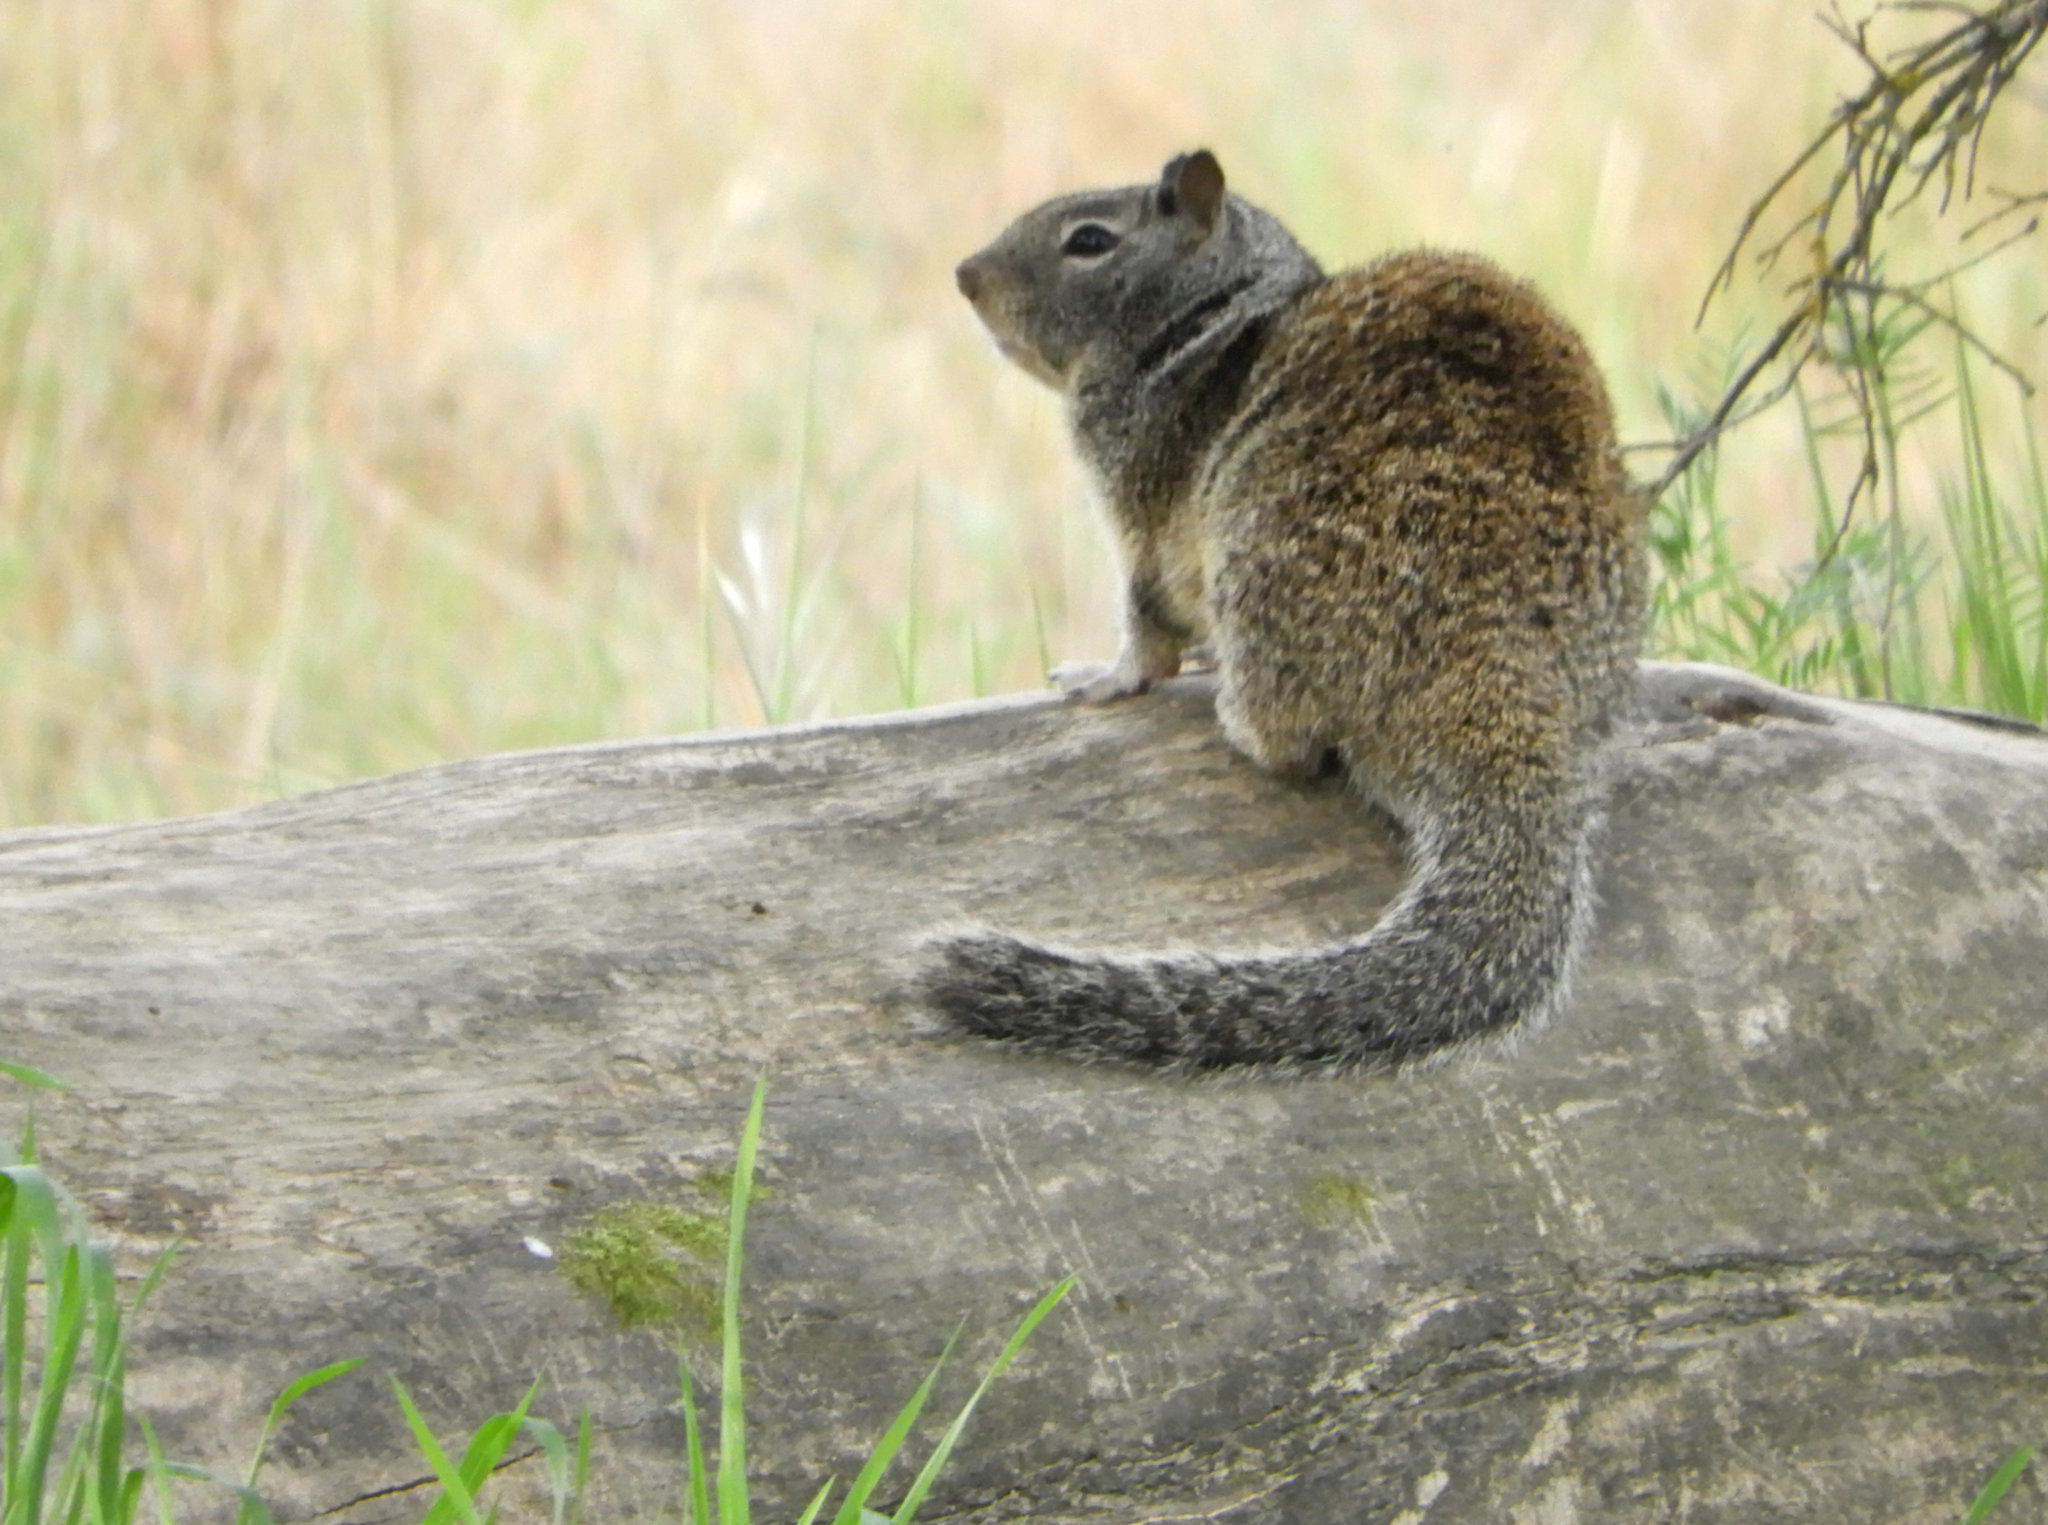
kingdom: Animalia
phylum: Chordata
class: Mammalia
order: Rodentia
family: Sciuridae
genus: Otospermophilus
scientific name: Otospermophilus beecheyi
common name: California ground squirrel
